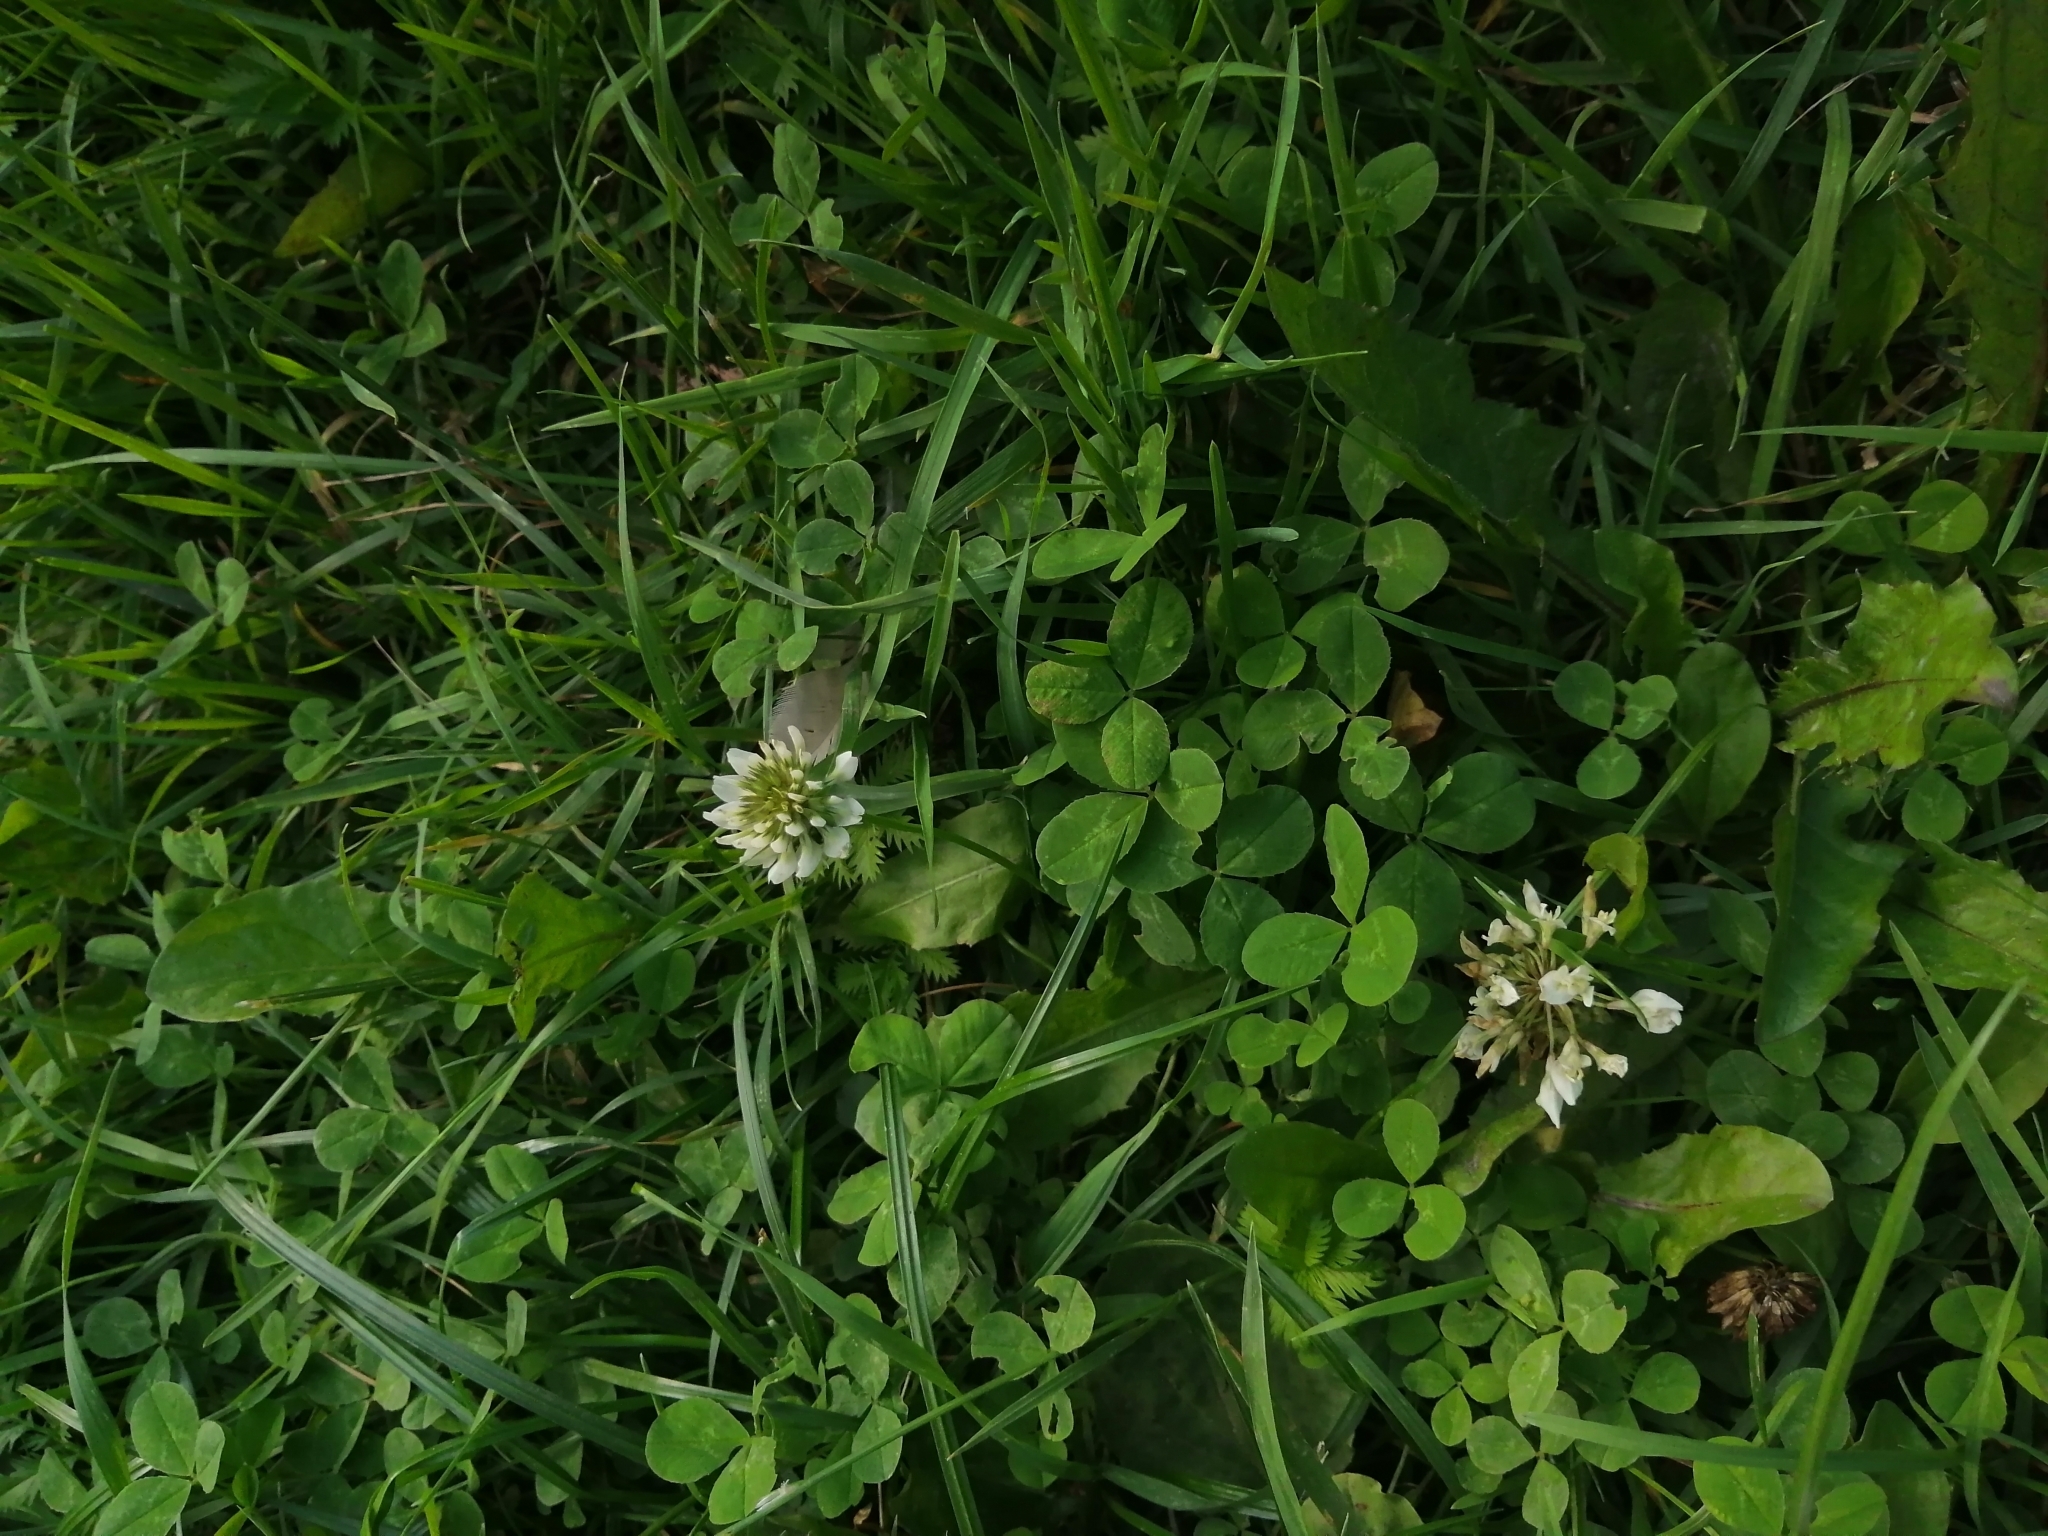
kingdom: Plantae
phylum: Tracheophyta
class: Magnoliopsida
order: Fabales
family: Fabaceae
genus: Trifolium
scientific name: Trifolium repens
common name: White clover
